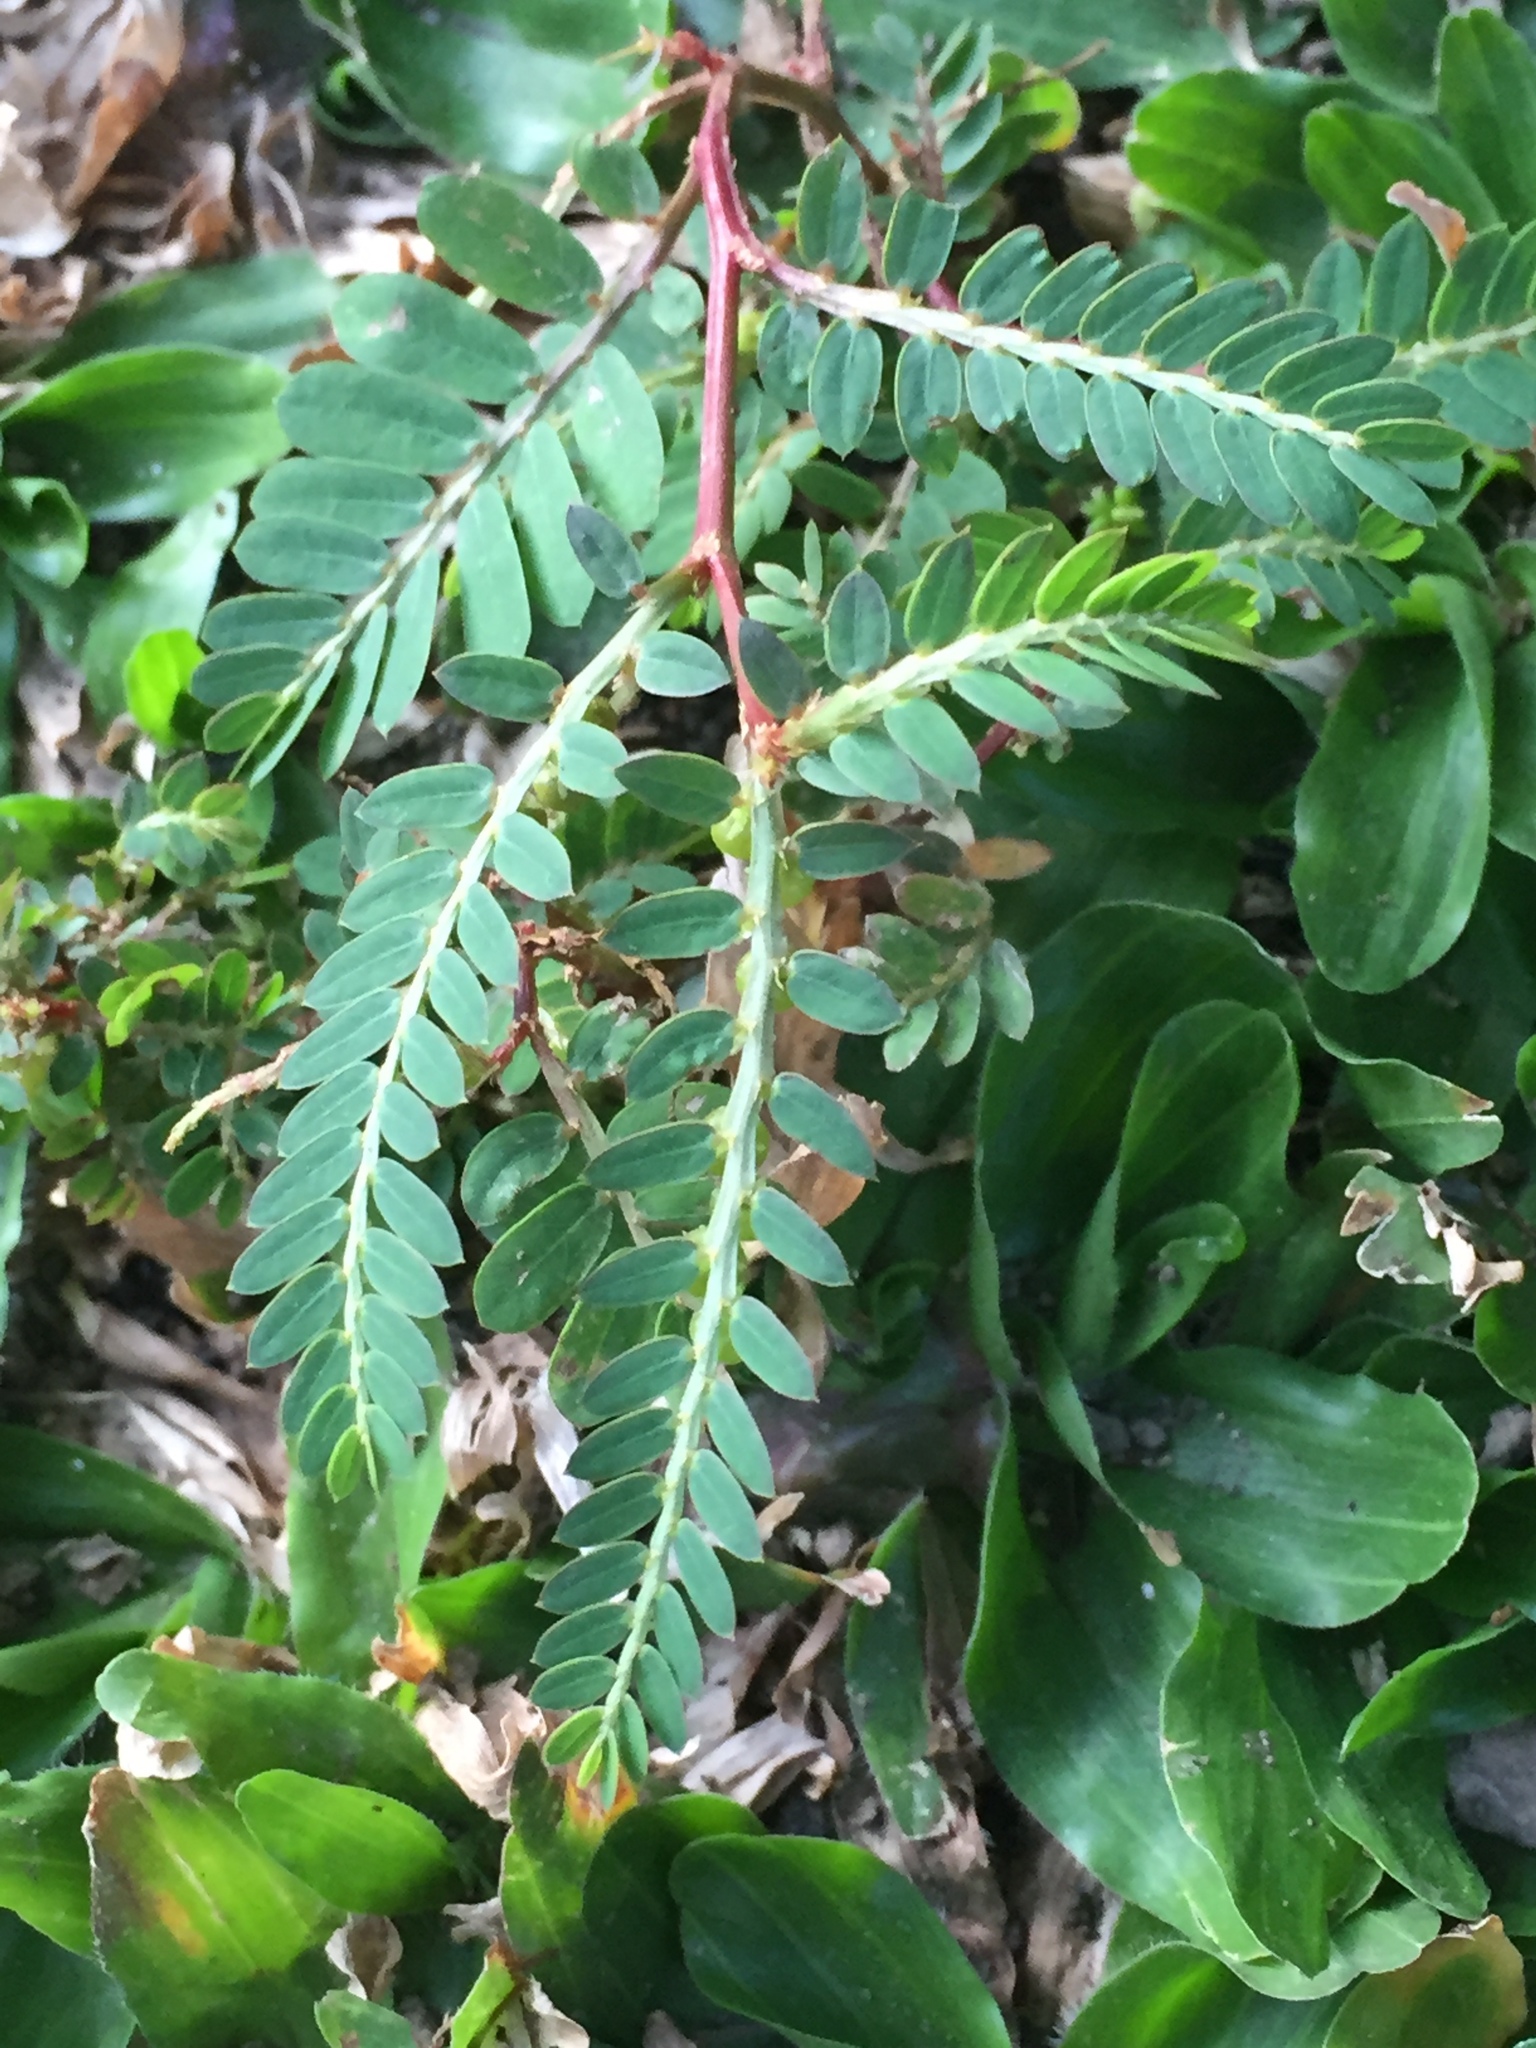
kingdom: Plantae
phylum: Tracheophyta
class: Magnoliopsida
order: Malpighiales
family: Phyllanthaceae
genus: Phyllanthus
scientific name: Phyllanthus urinaria
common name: Chamber bitter
